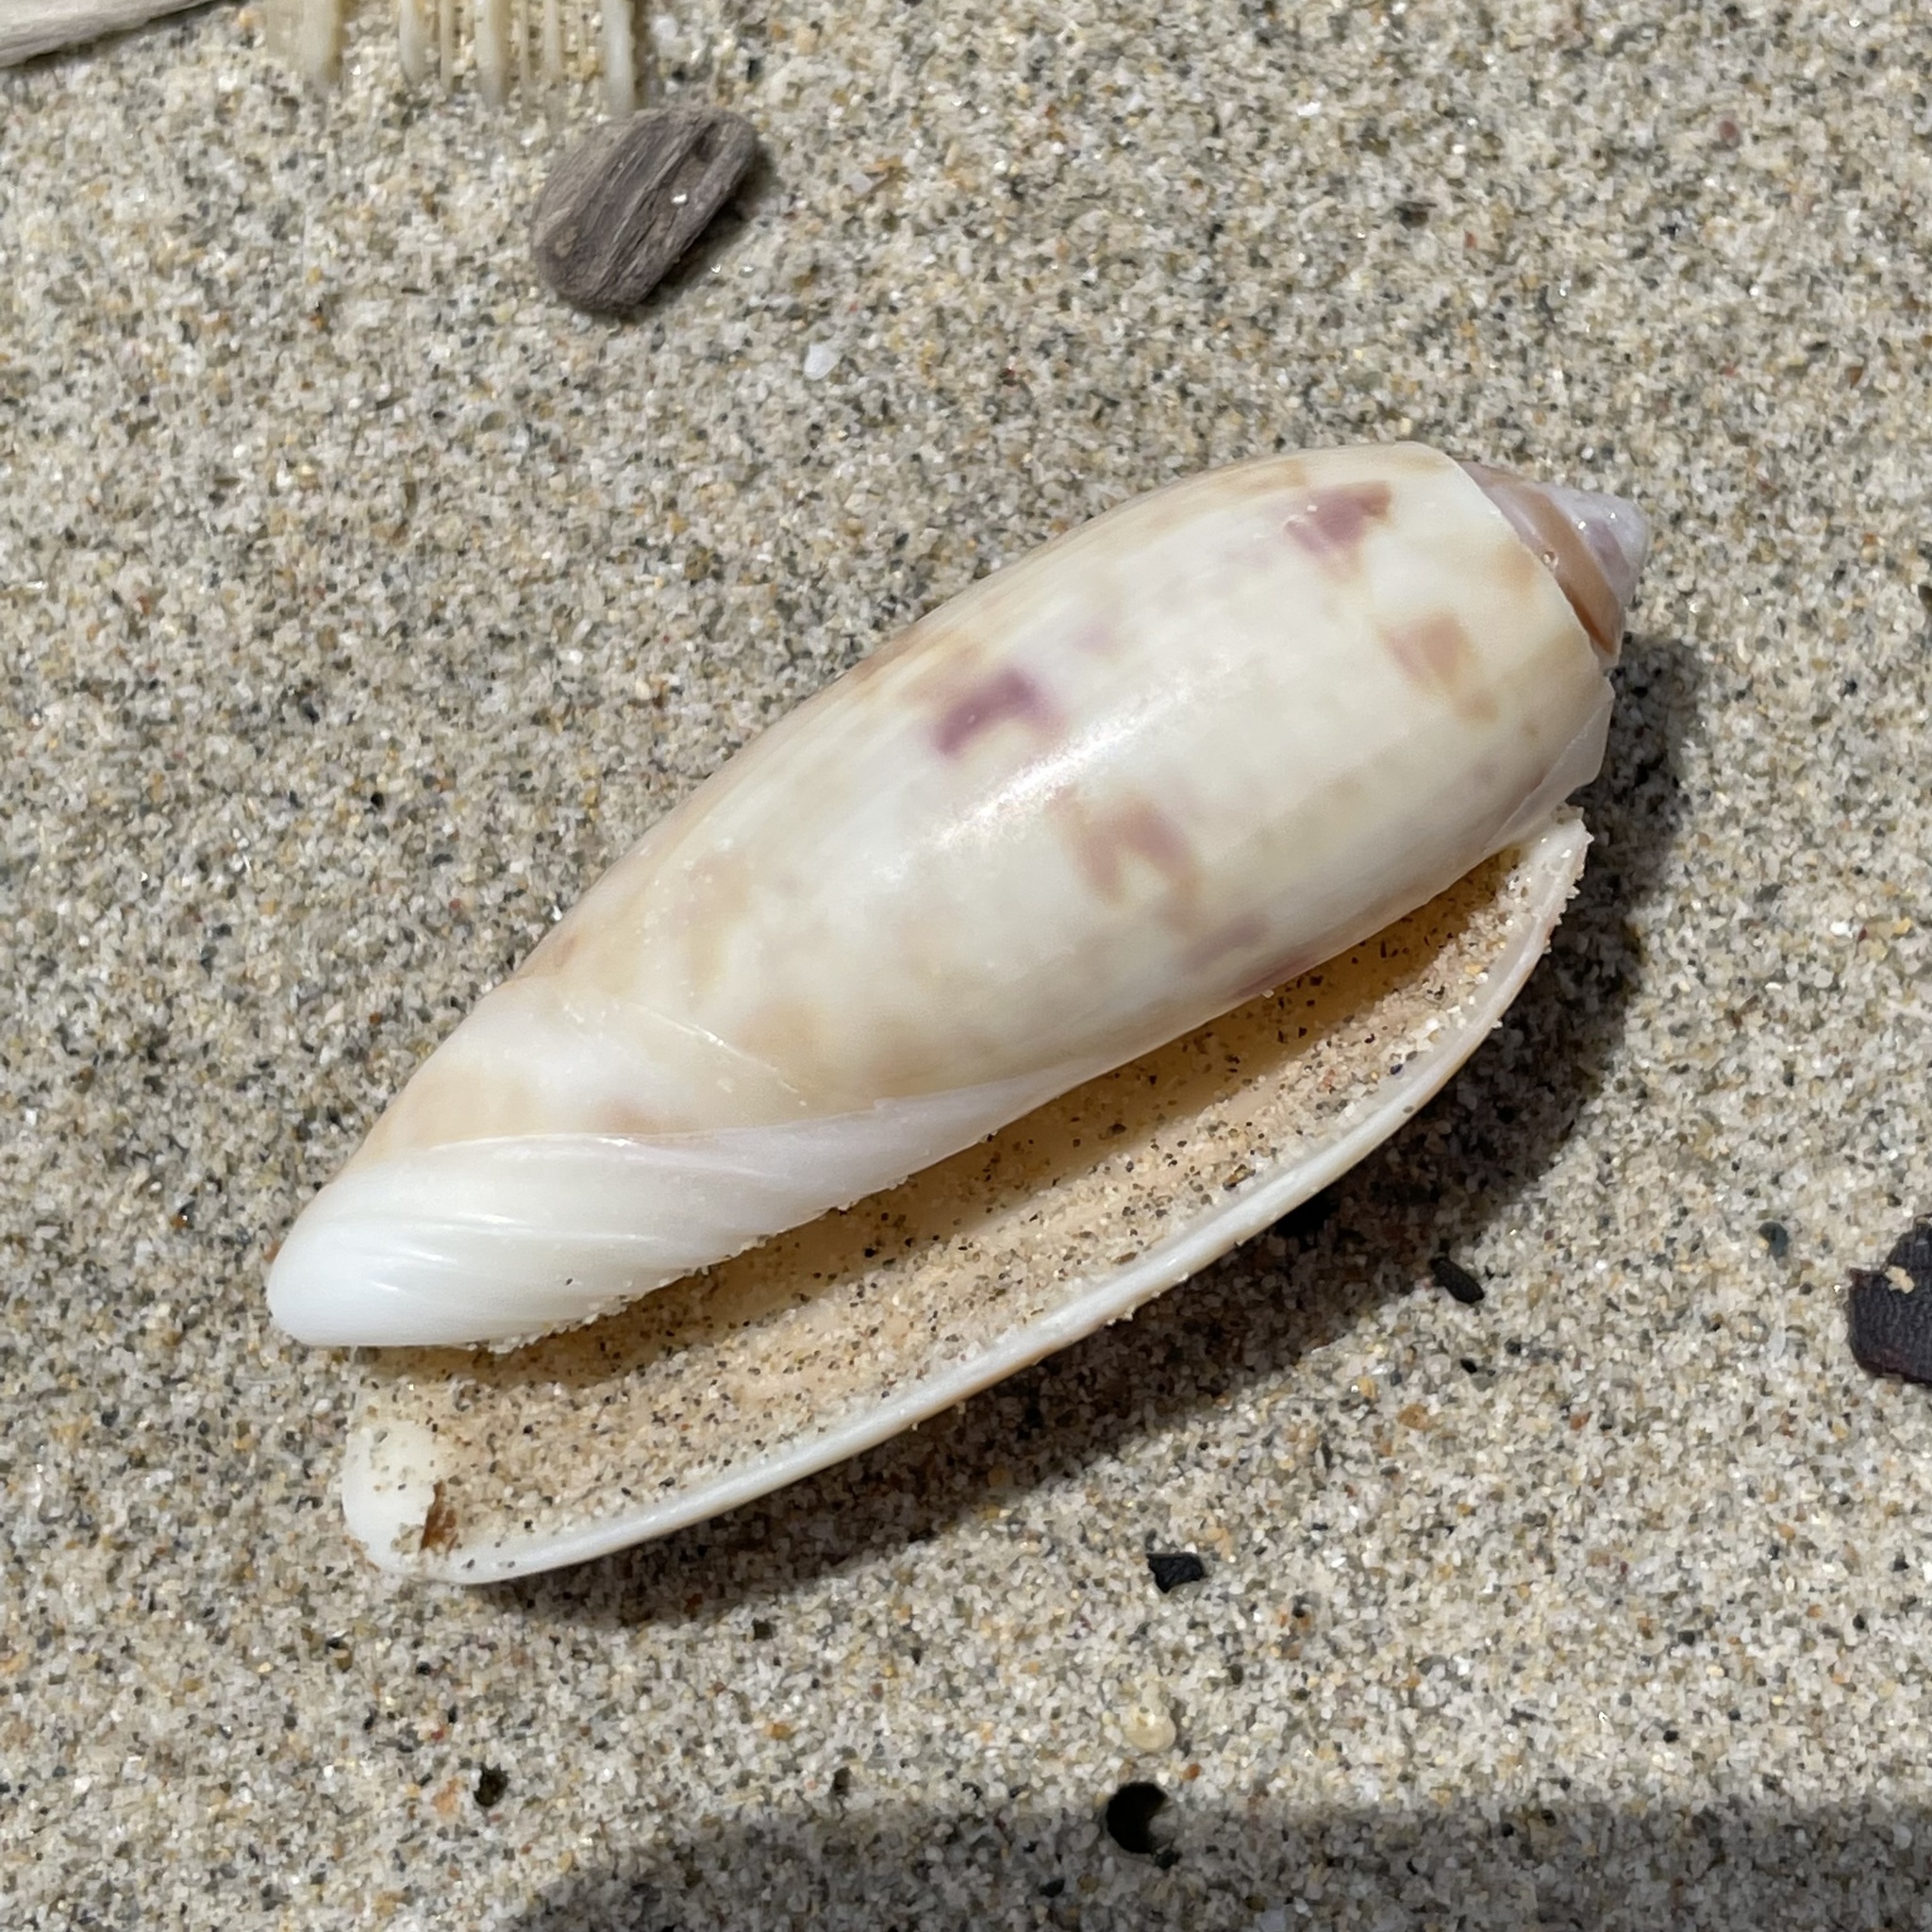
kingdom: Animalia
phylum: Mollusca
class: Gastropoda
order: Neogastropoda
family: Olividae
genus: Oliva
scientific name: Oliva miniacea
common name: Pacific common olive
